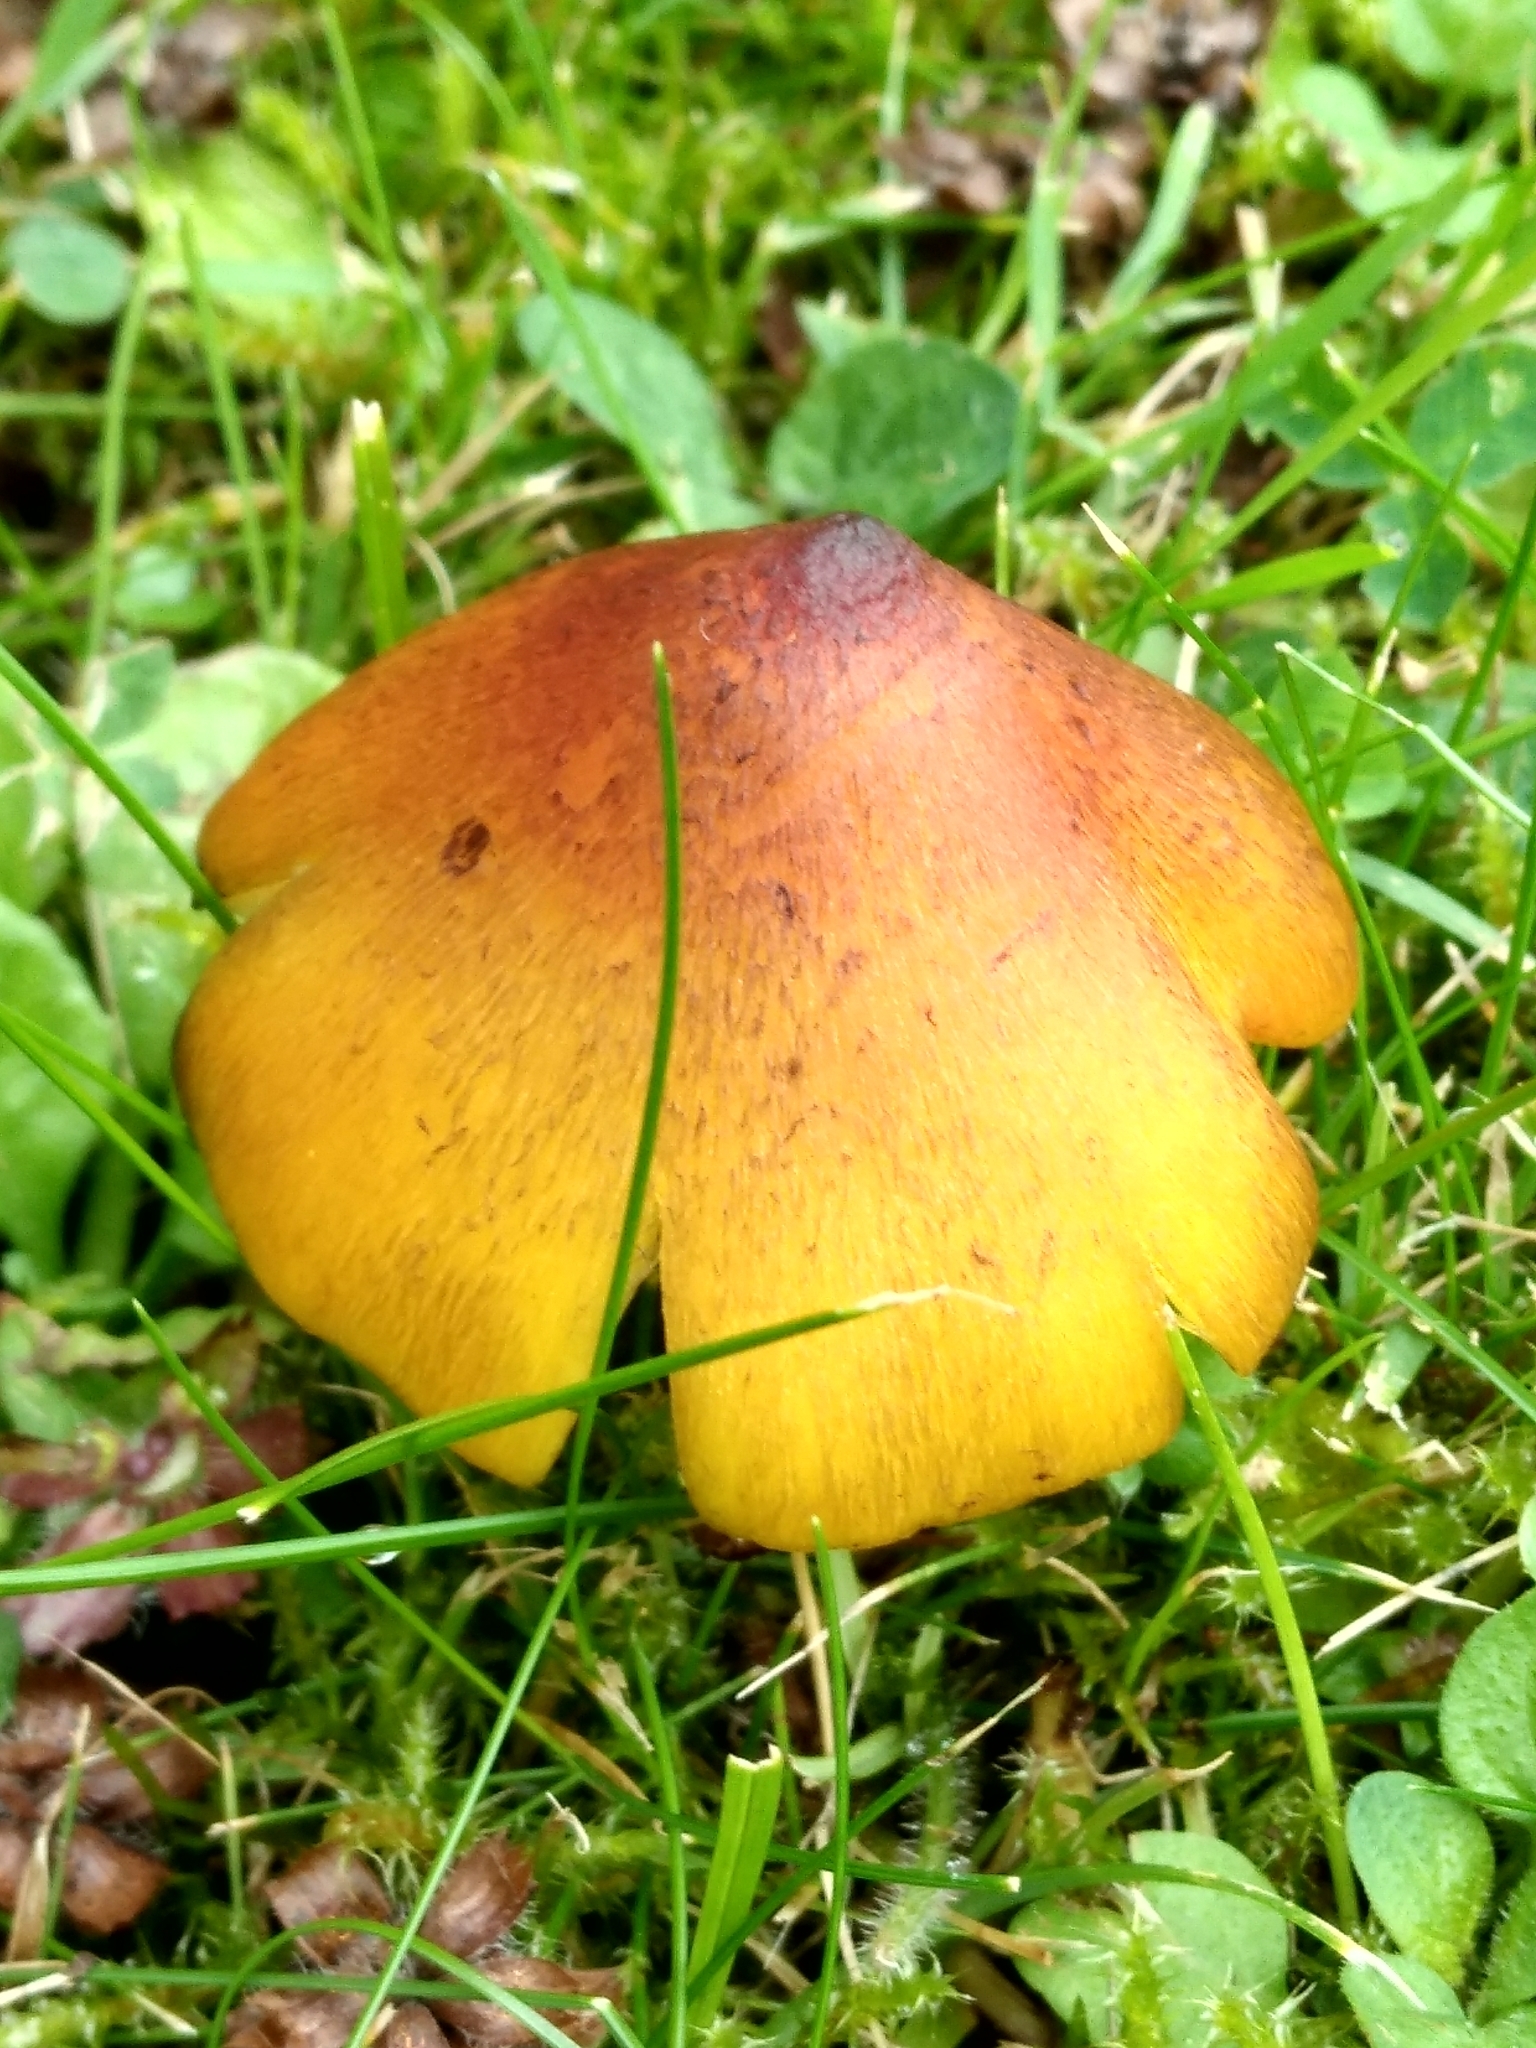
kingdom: Fungi
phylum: Basidiomycota
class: Agaricomycetes
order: Agaricales
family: Hygrophoraceae
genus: Hygrocybe
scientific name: Hygrocybe conica
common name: Blackening wax-cap
